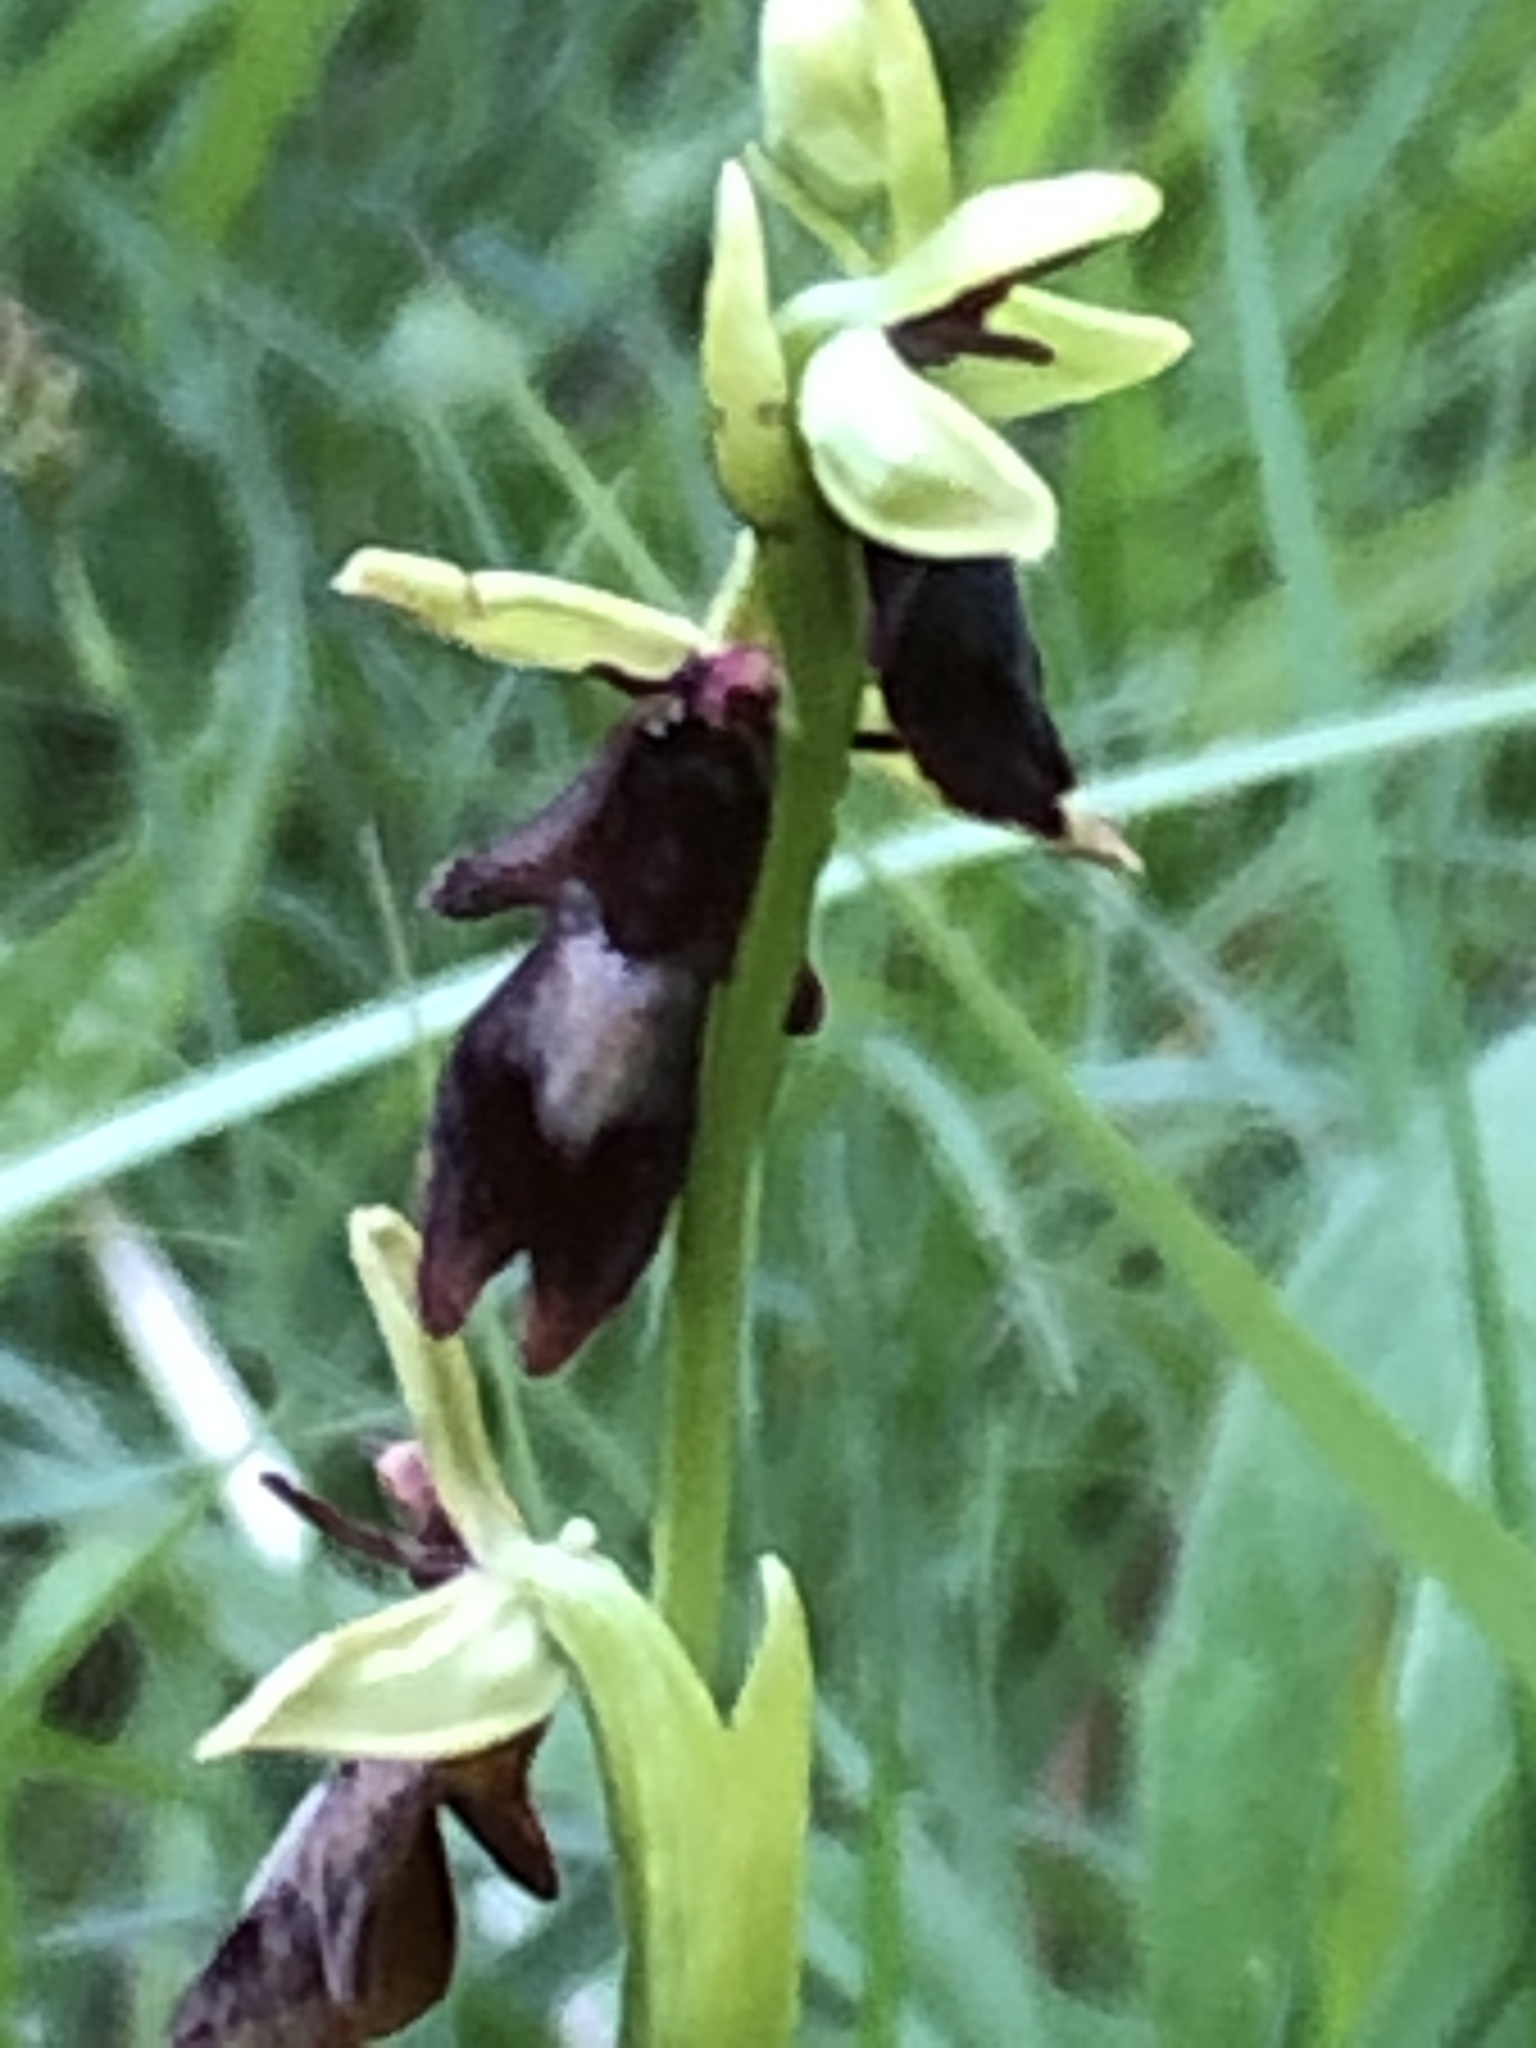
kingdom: Plantae
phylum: Tracheophyta
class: Liliopsida
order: Asparagales
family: Orchidaceae
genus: Ophrys
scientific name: Ophrys insectifera
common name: Fly orchid
